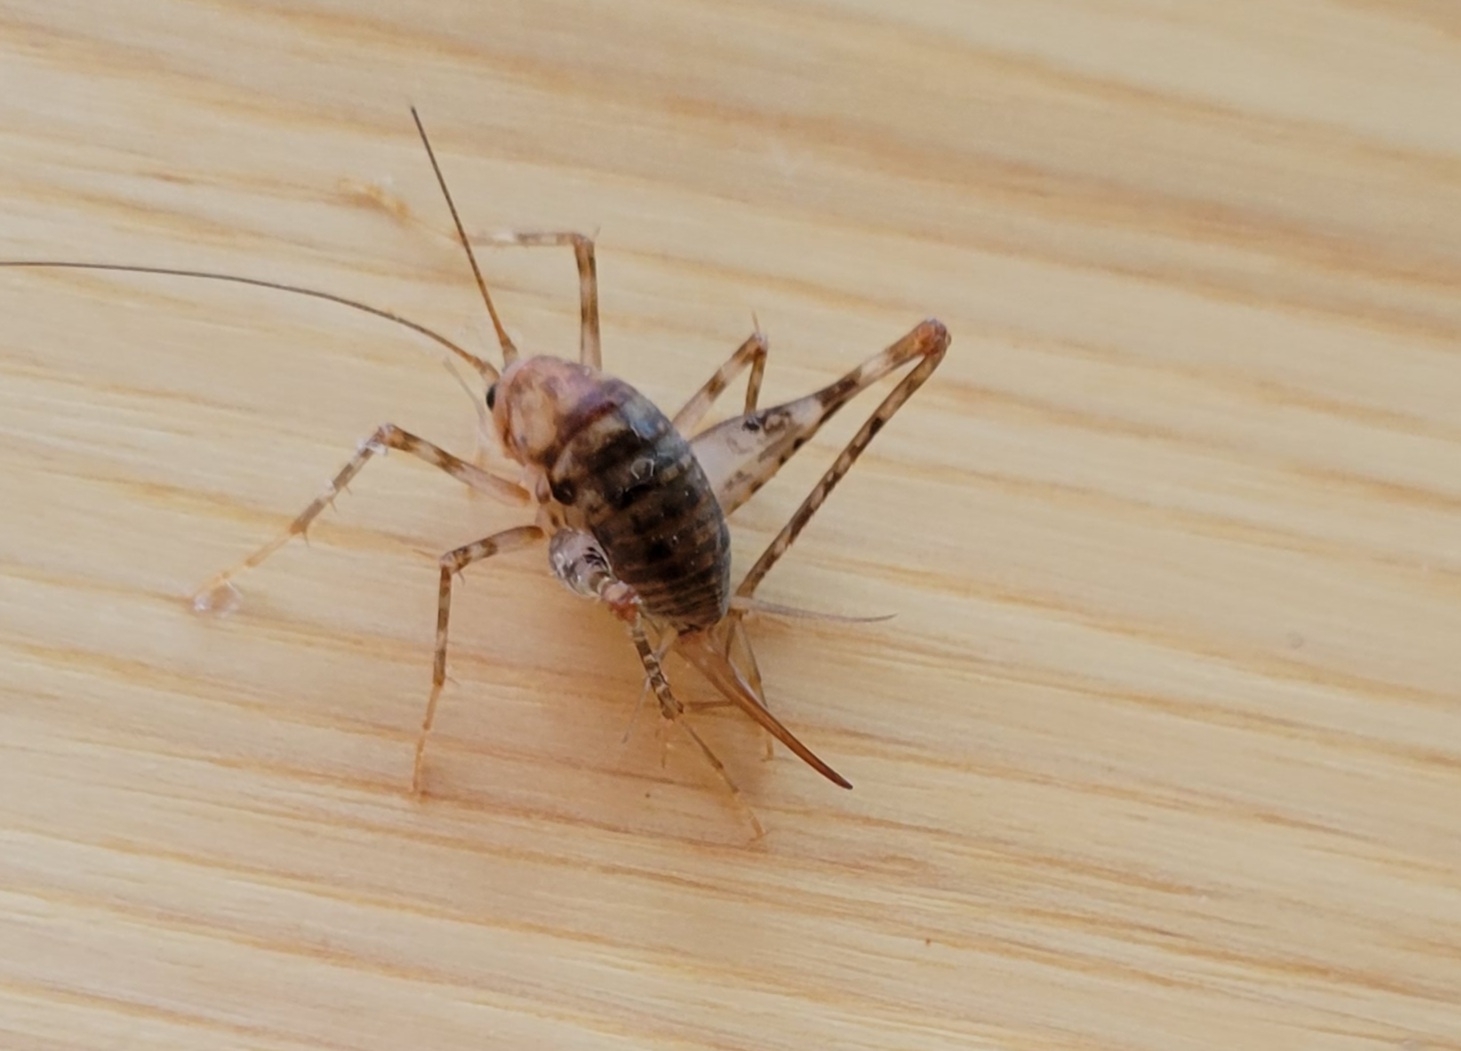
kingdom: Animalia
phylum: Arthropoda
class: Insecta
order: Orthoptera
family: Rhaphidophoridae
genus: Tachycines
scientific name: Tachycines asynamorus
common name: Greenhouse camel cricket
